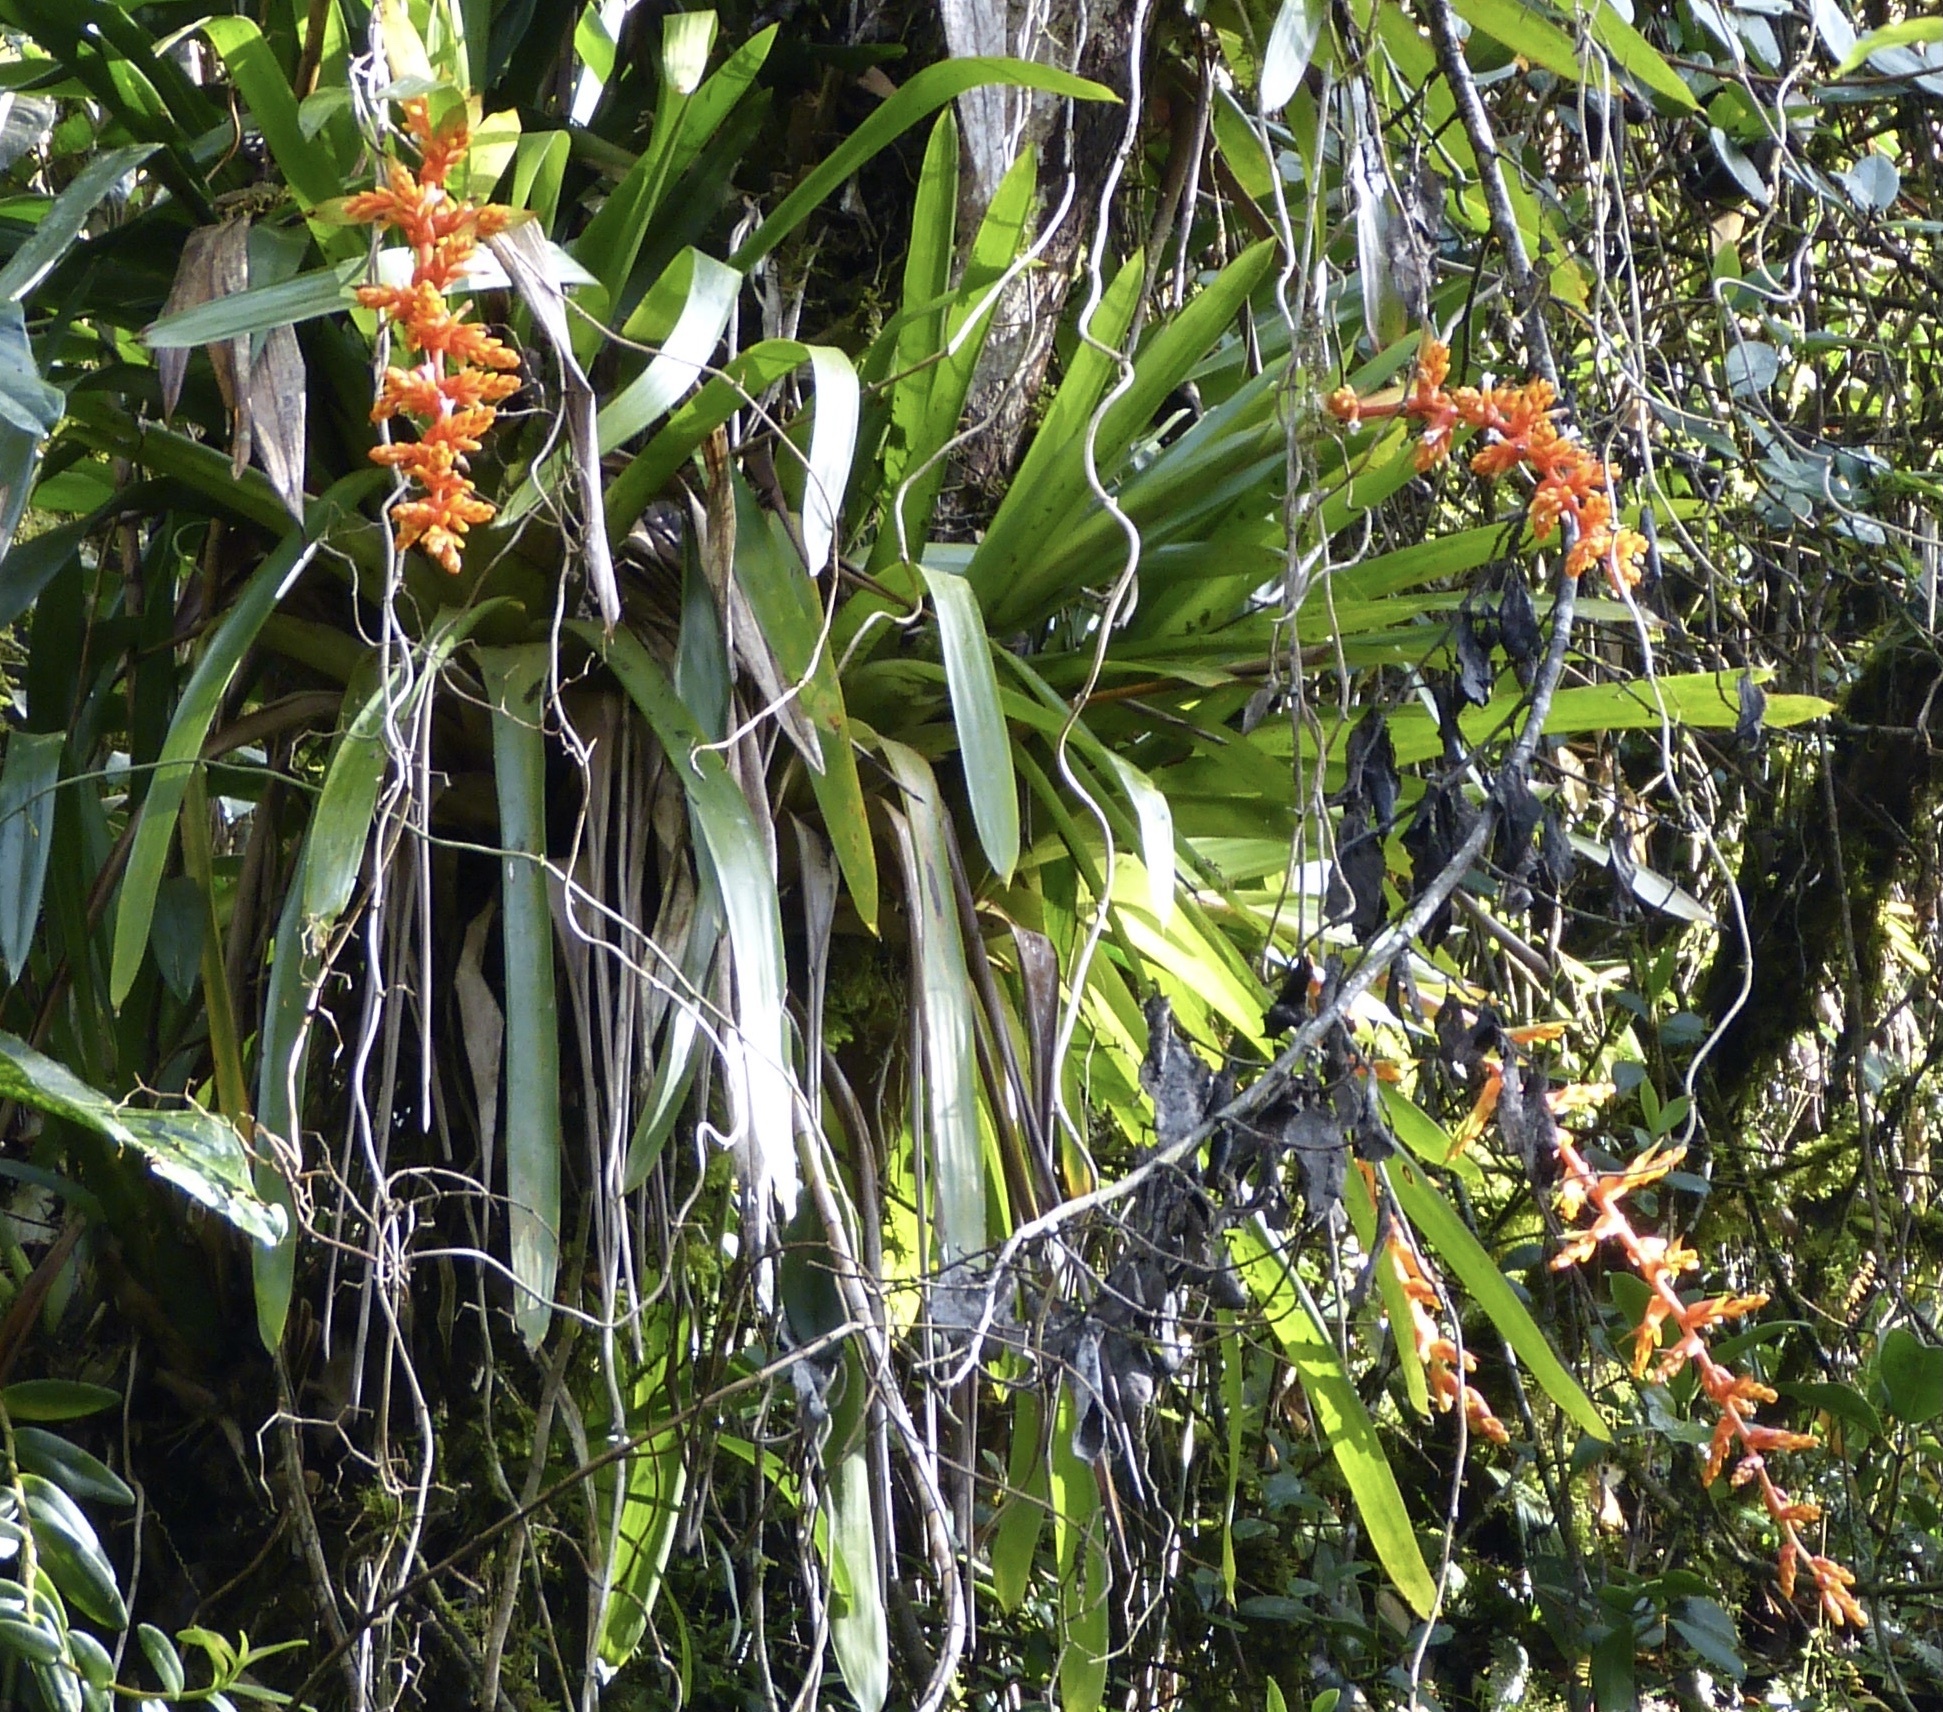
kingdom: Plantae
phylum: Tracheophyta
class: Liliopsida
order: Poales
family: Bromeliaceae
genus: Guzmania
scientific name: Guzmania multiflora
